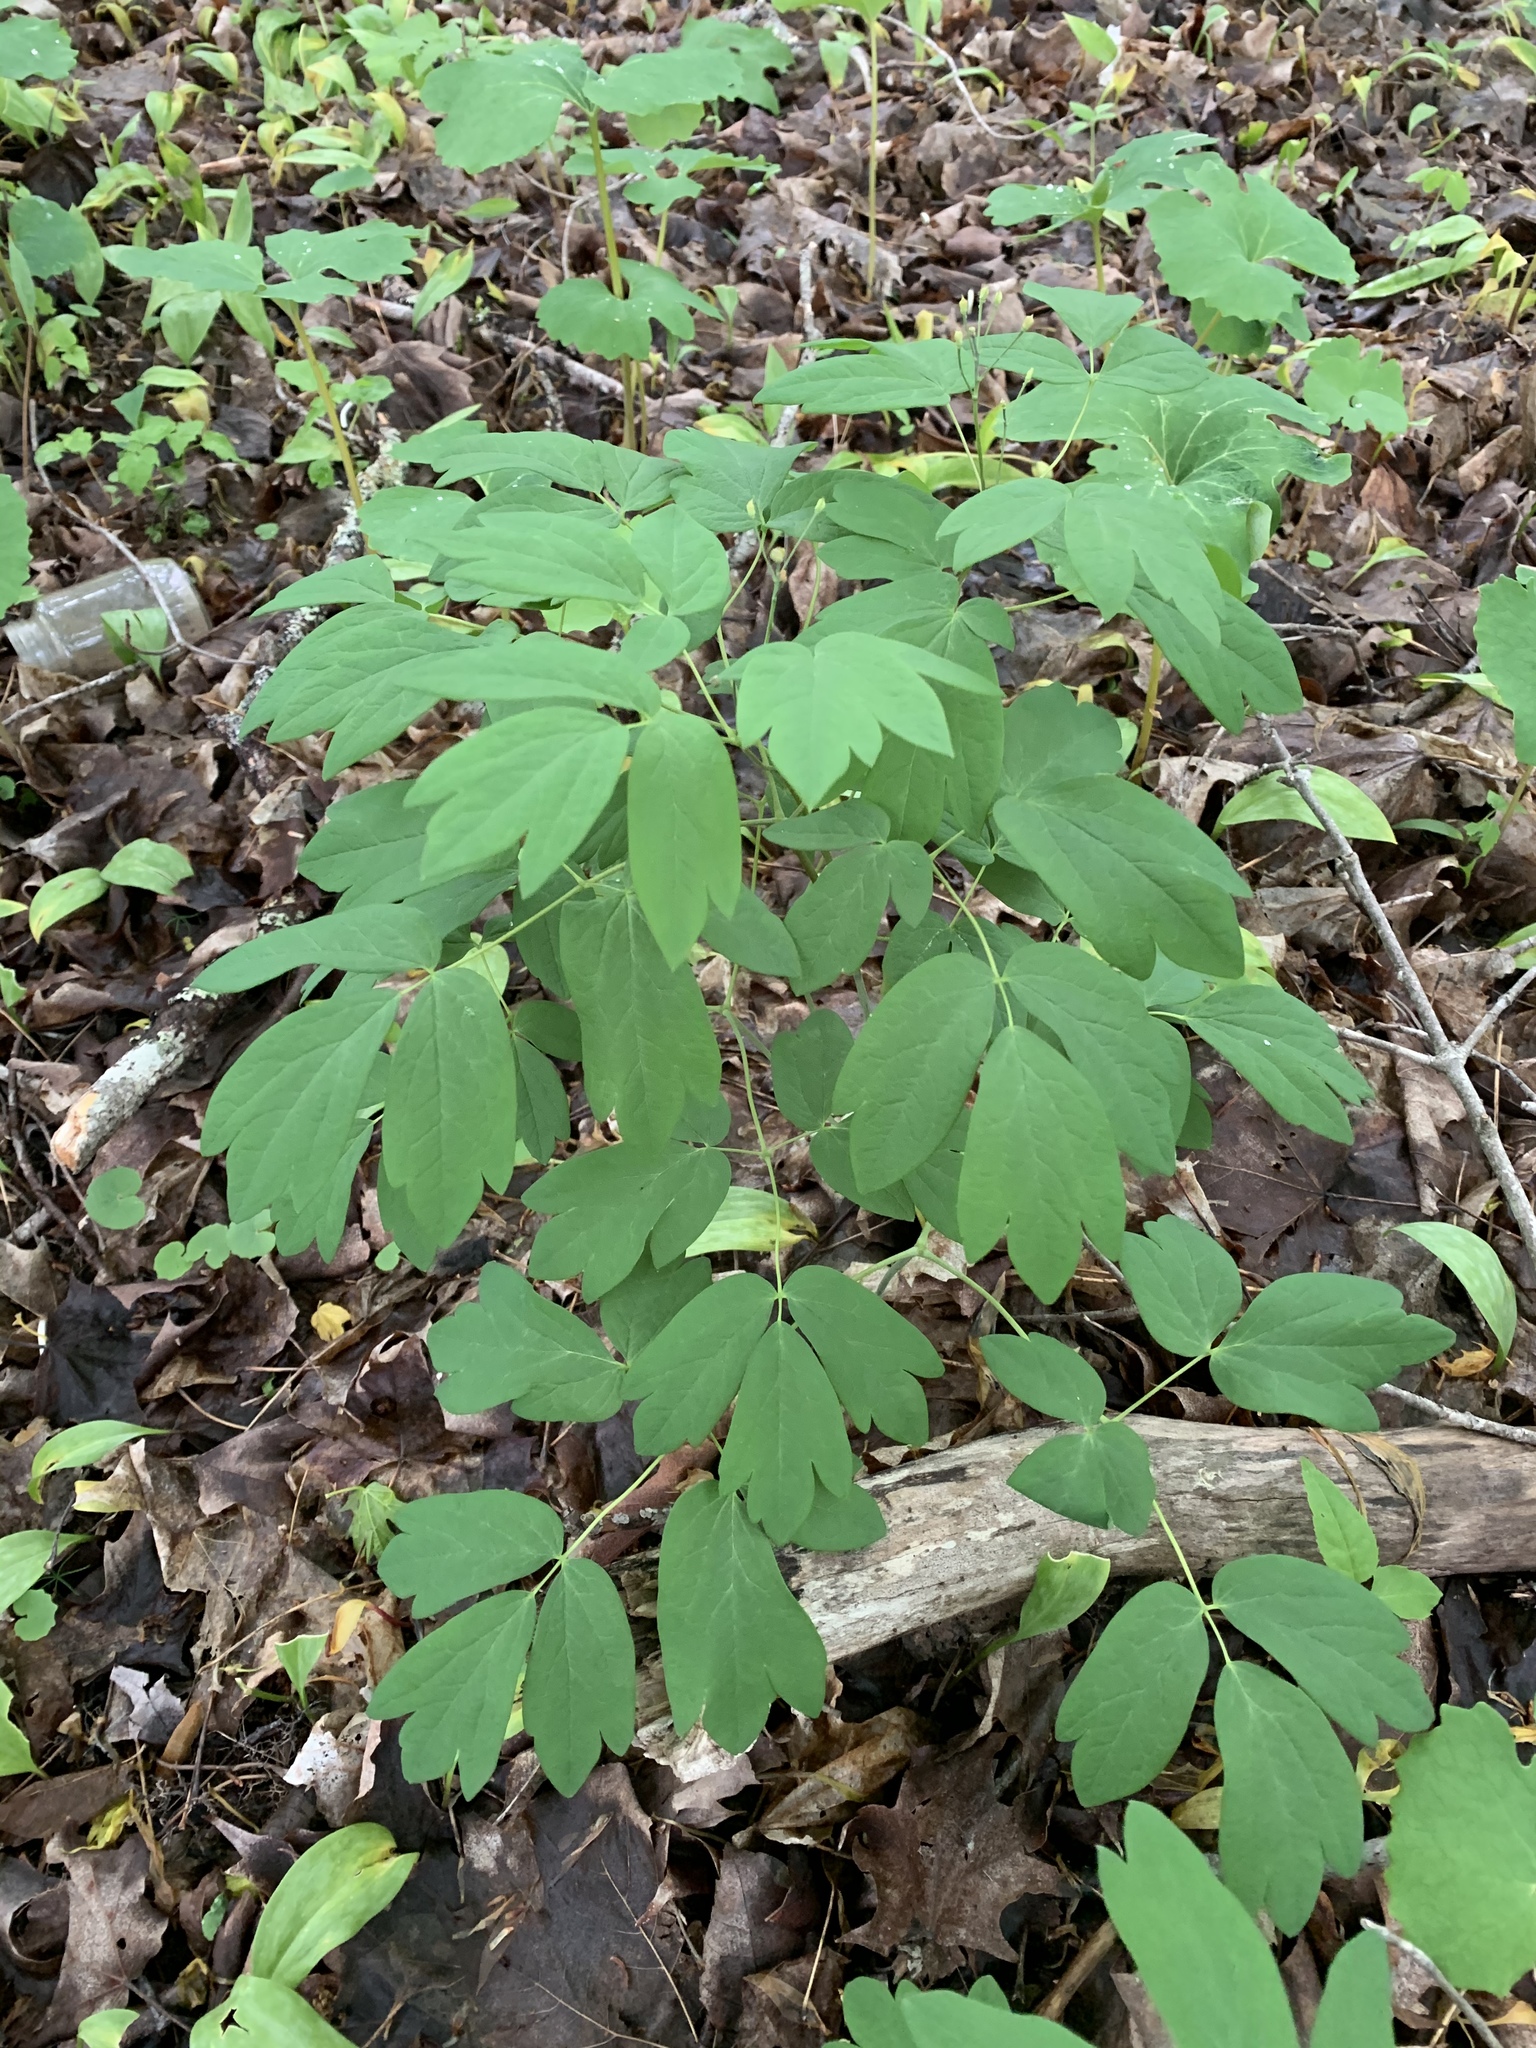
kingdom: Plantae
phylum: Tracheophyta
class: Magnoliopsida
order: Ranunculales
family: Berberidaceae
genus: Caulophyllum
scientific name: Caulophyllum thalictroides
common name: Blue cohosh
